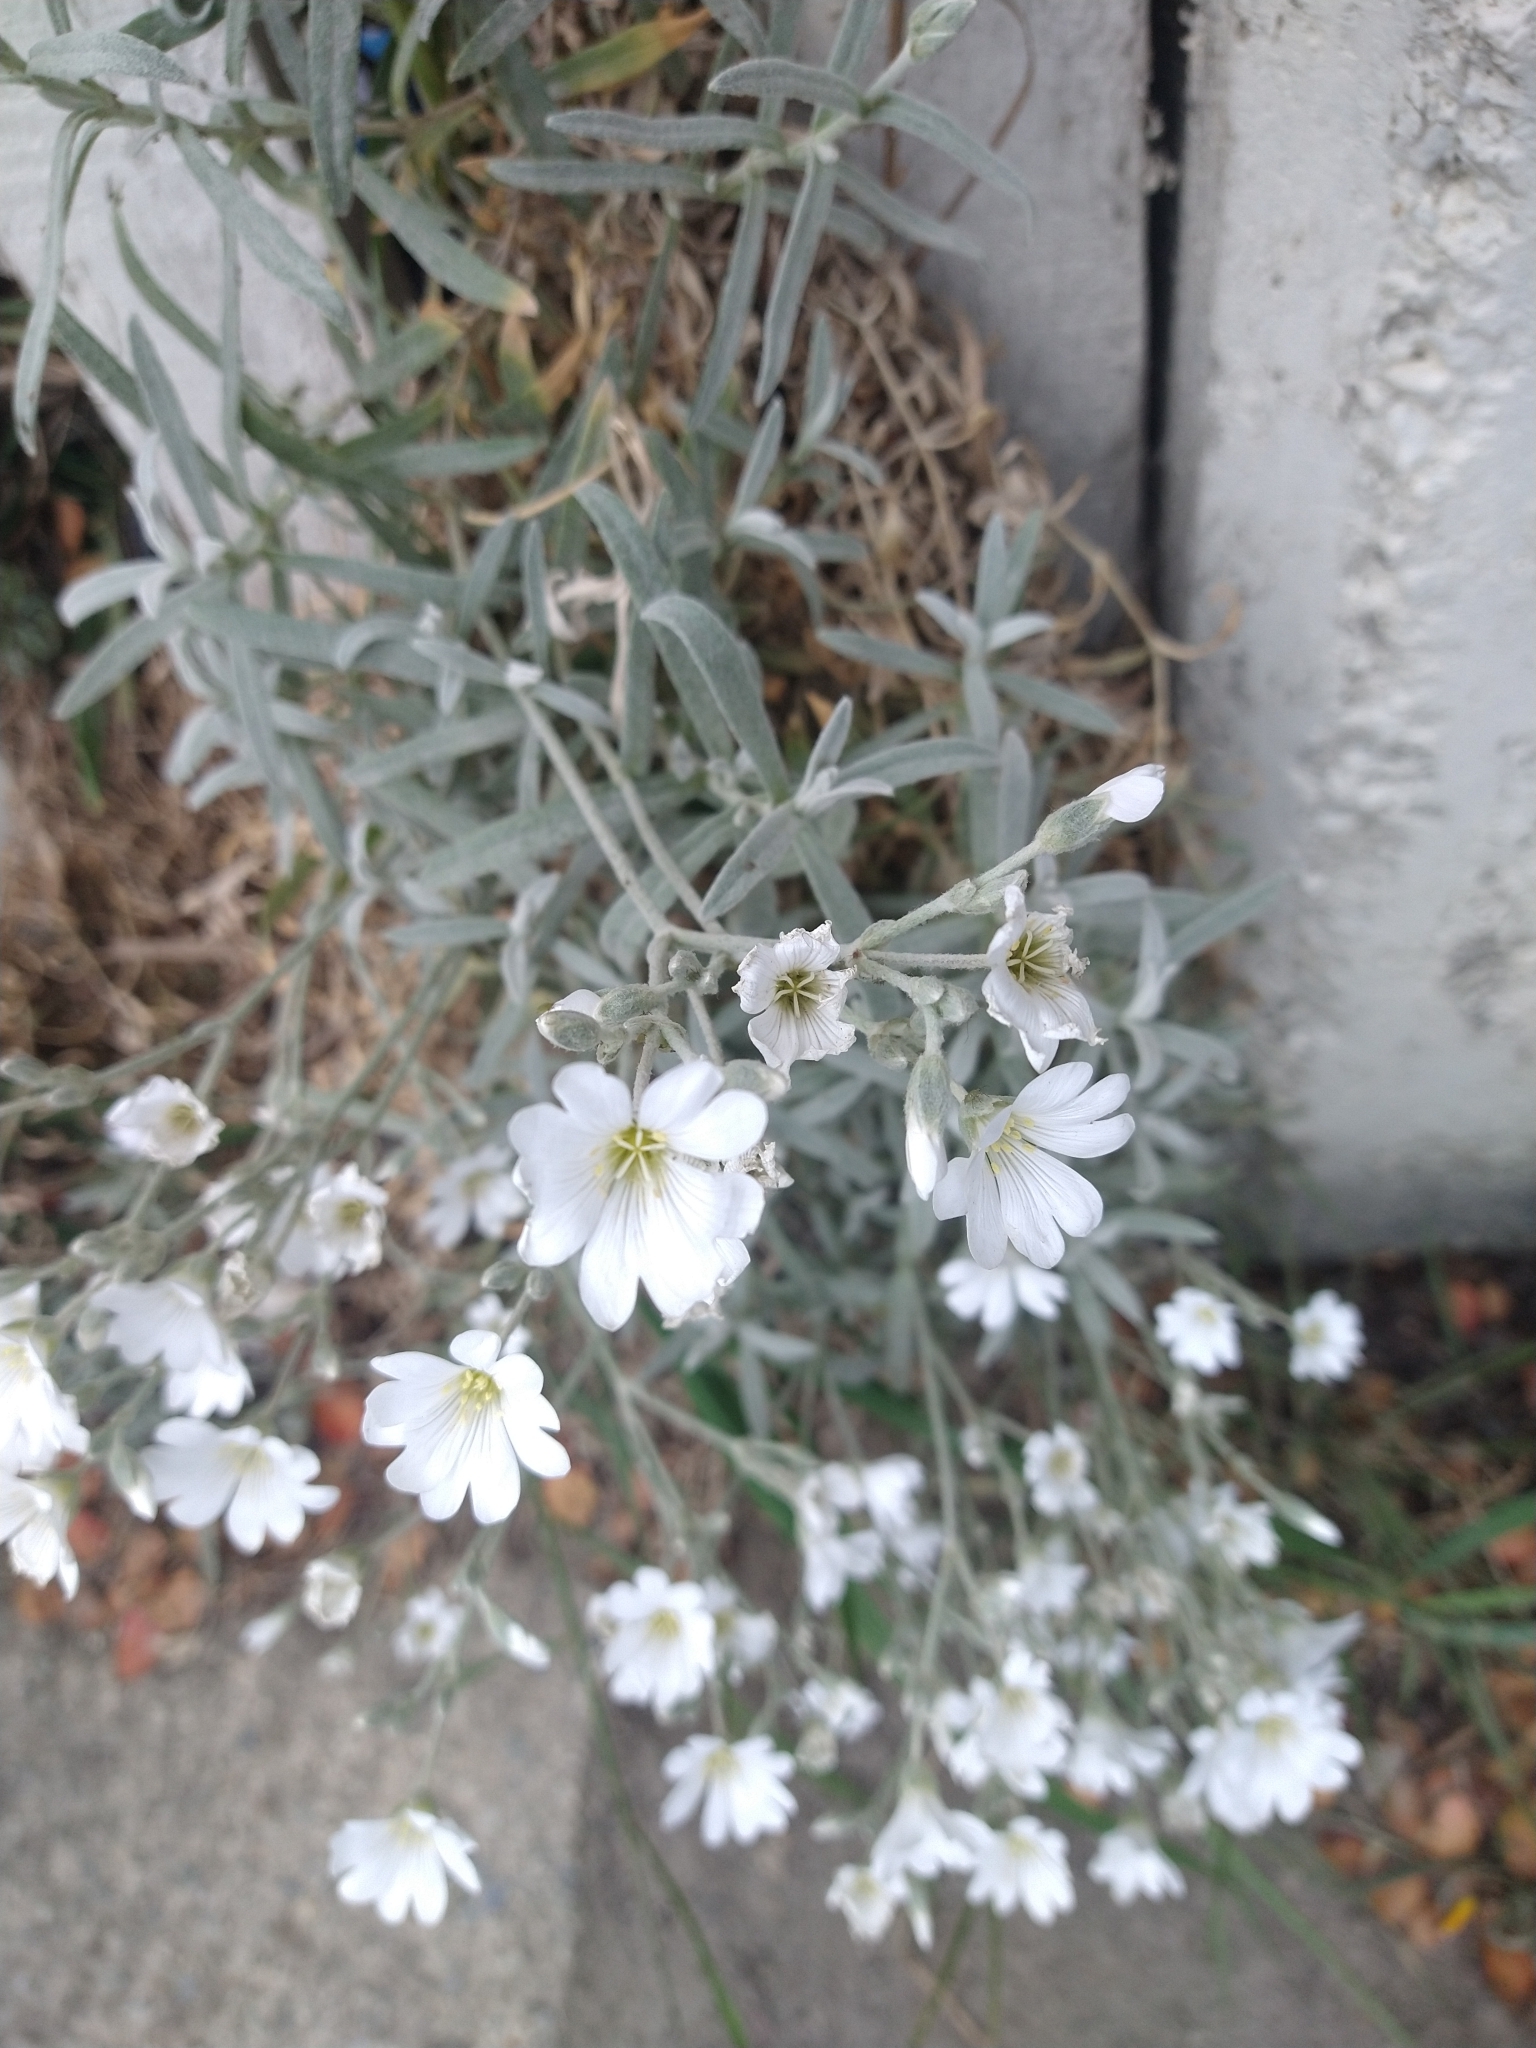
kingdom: Plantae
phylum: Tracheophyta
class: Magnoliopsida
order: Caryophyllales
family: Caryophyllaceae
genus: Cerastium
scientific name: Cerastium tomentosum
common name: Snow-in-summer
